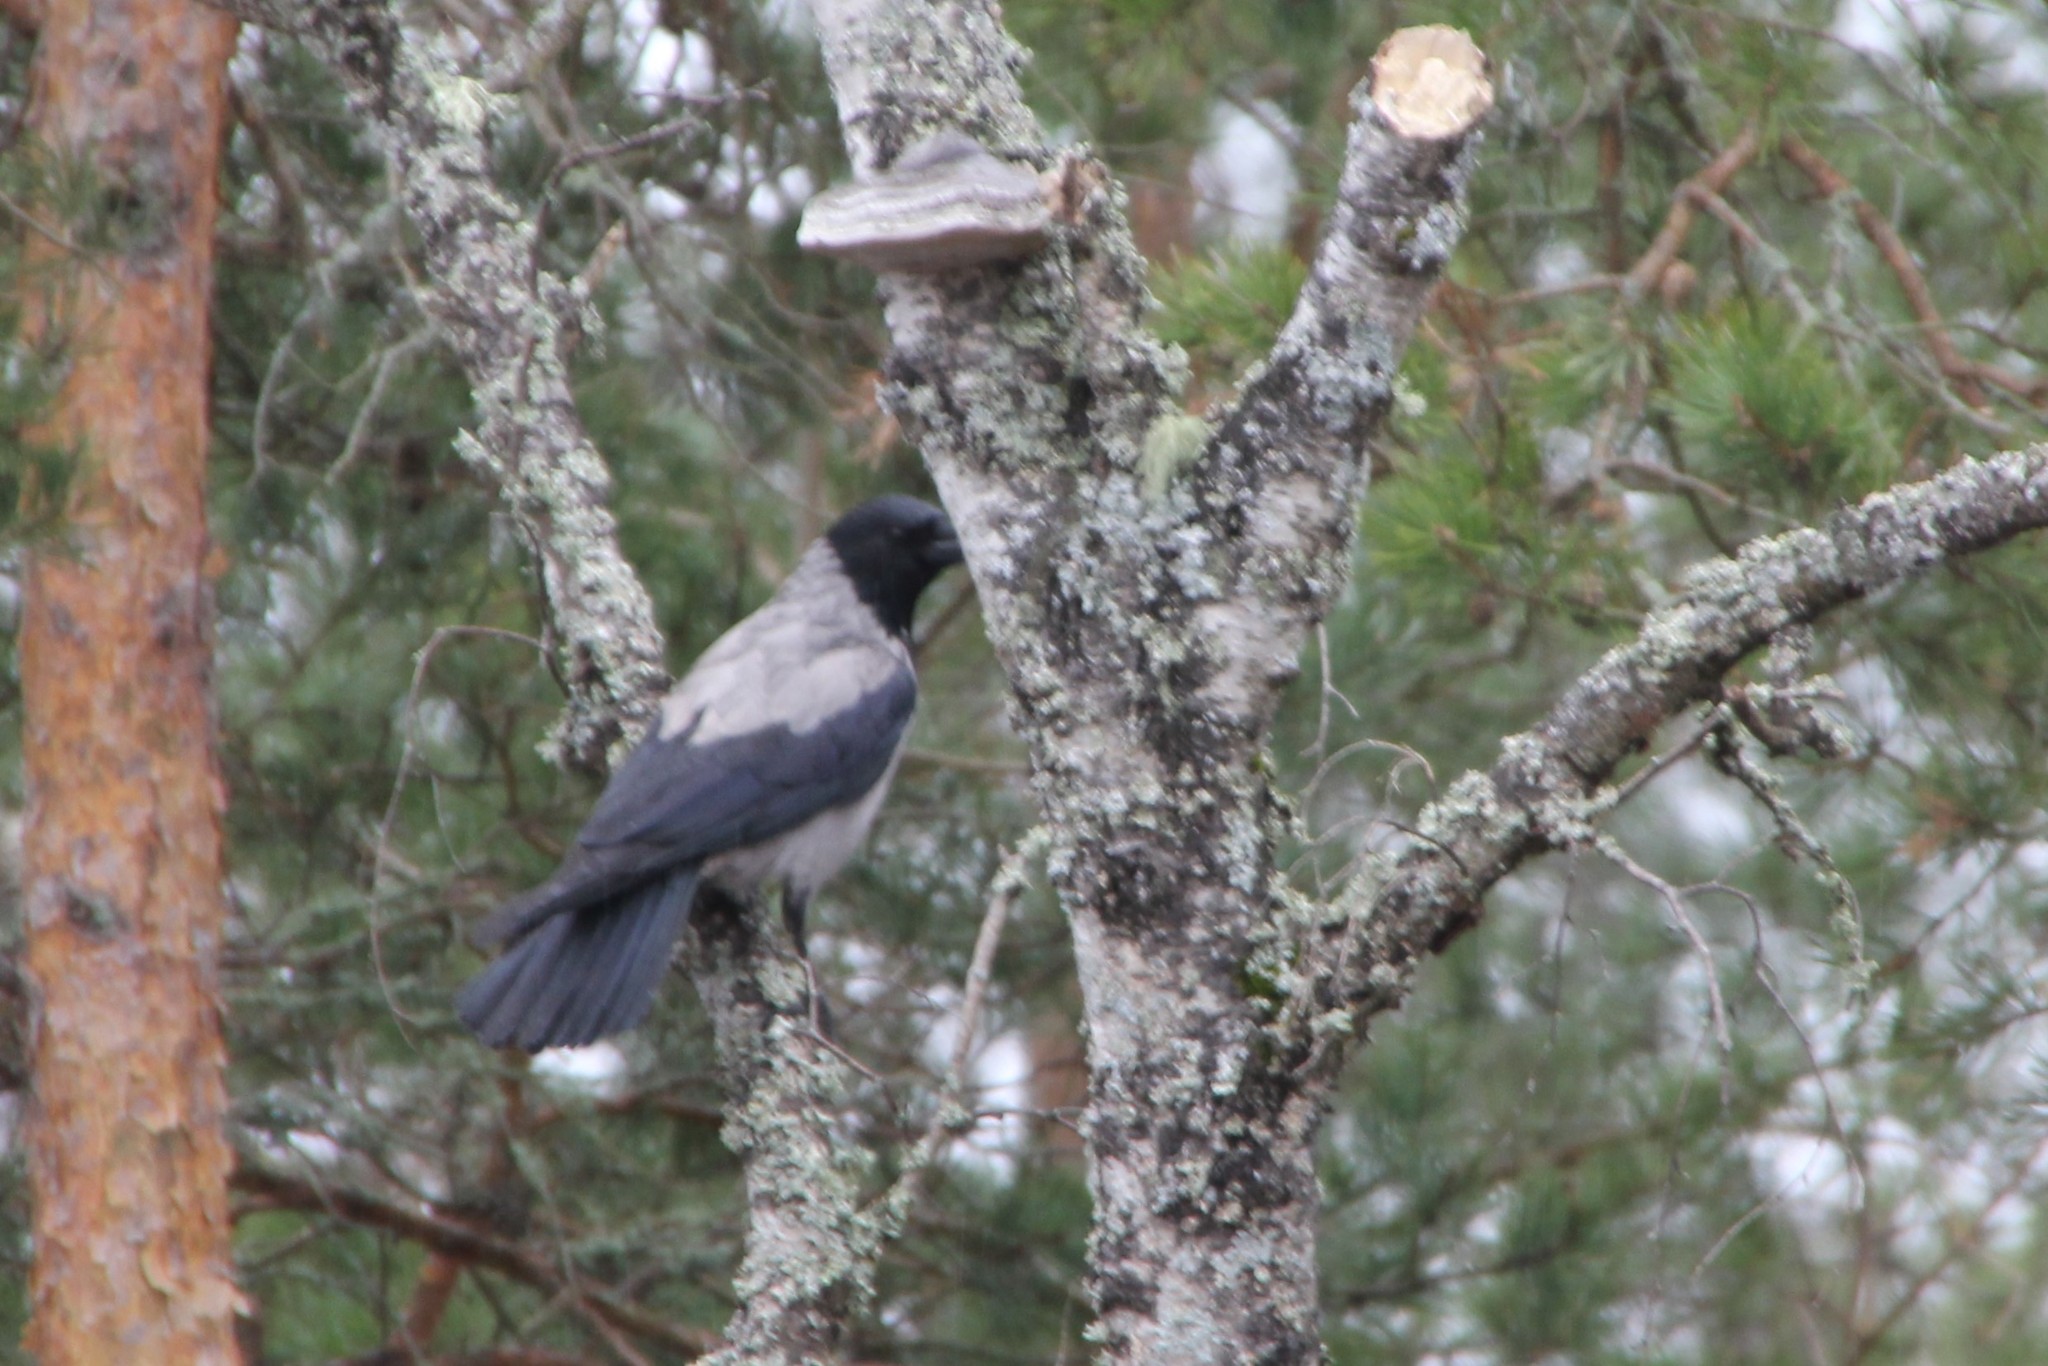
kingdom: Animalia
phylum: Chordata
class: Aves
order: Passeriformes
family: Corvidae
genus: Corvus
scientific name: Corvus cornix
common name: Hooded crow
